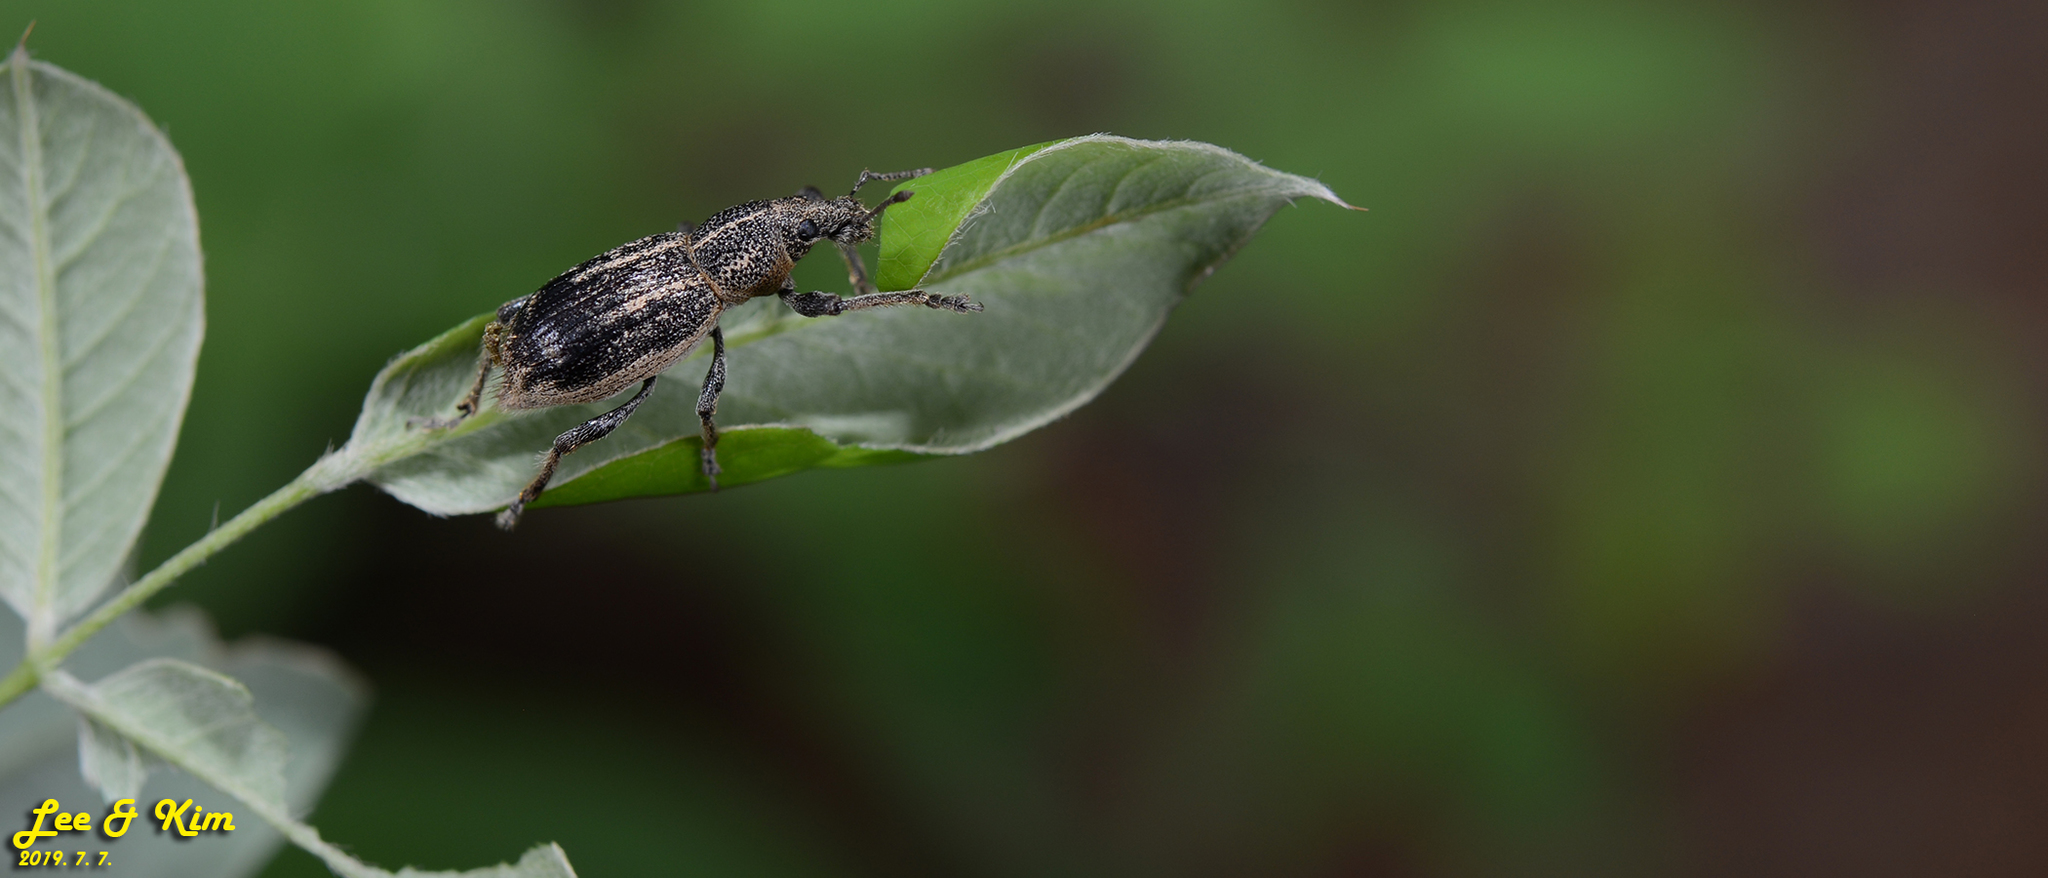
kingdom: Animalia
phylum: Arthropoda
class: Insecta
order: Coleoptera
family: Curculionidae
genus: Enaptorhinus
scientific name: Enaptorhinus granulatus
